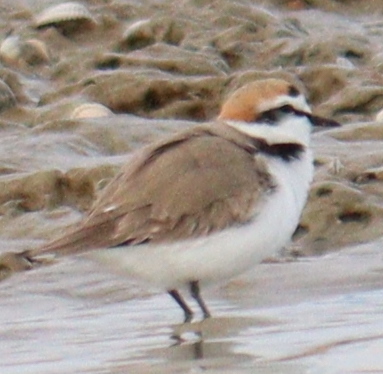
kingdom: Animalia
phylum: Chordata
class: Aves
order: Charadriiformes
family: Charadriidae
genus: Charadrius
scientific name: Charadrius alexandrinus
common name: Kentish plover
